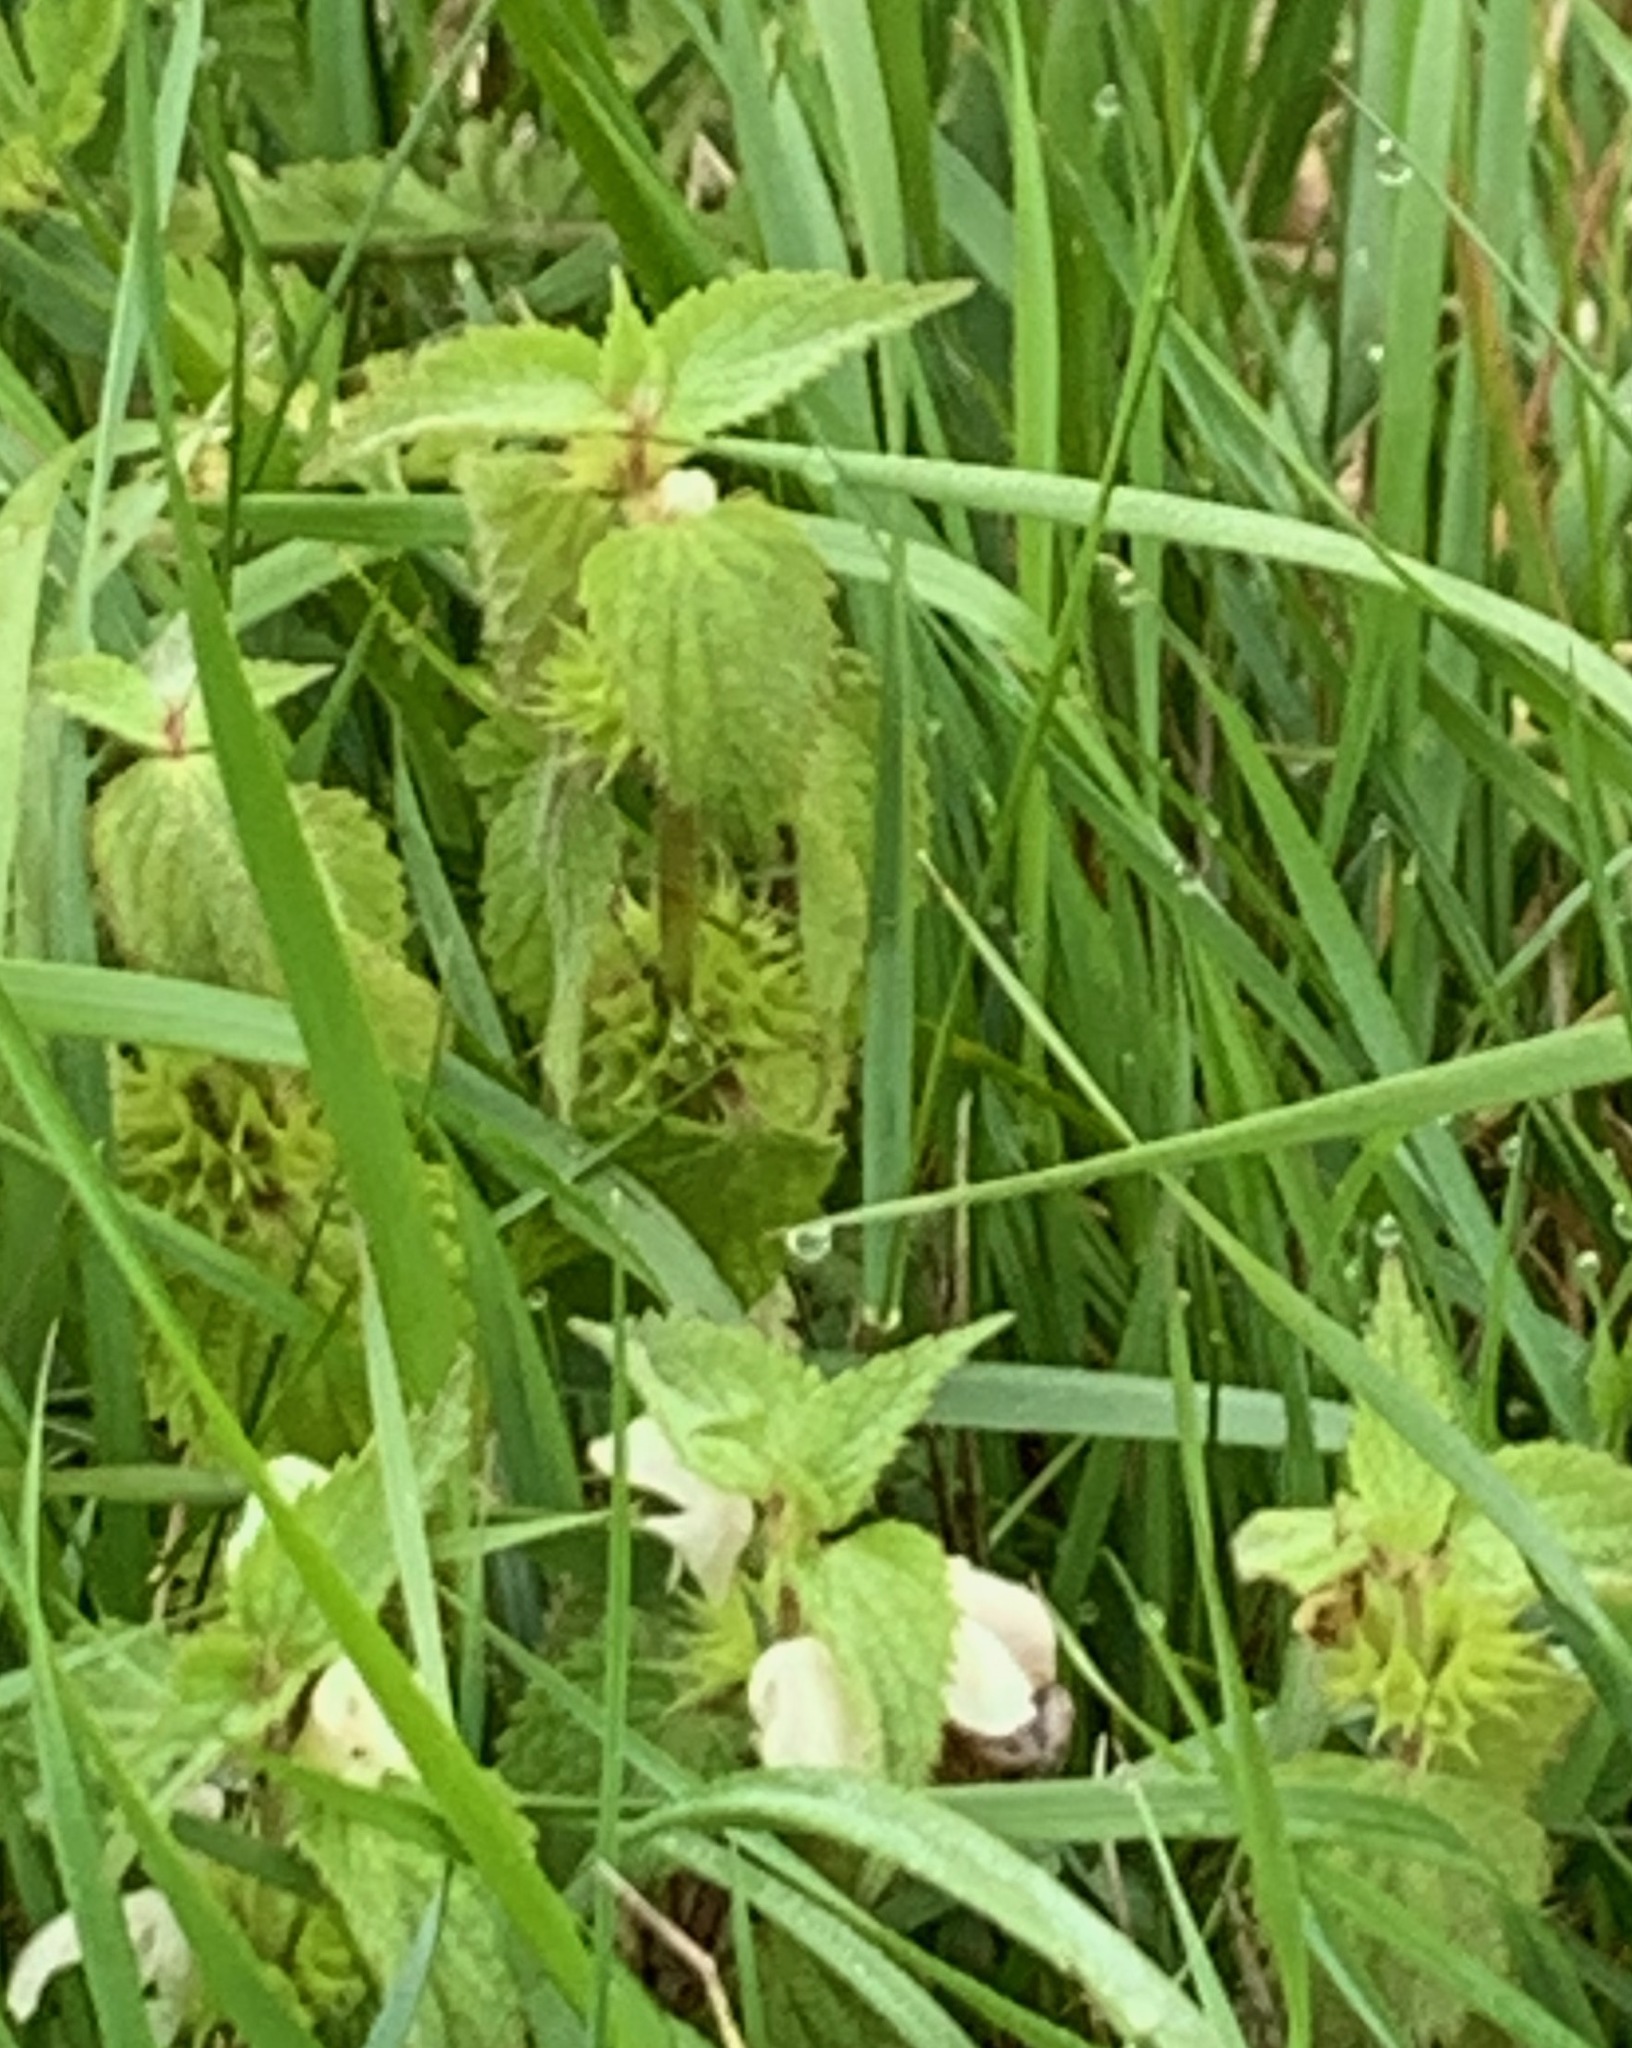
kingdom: Plantae
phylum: Tracheophyta
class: Magnoliopsida
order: Lamiales
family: Lamiaceae
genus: Lamium
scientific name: Lamium album
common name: White dead-nettle
